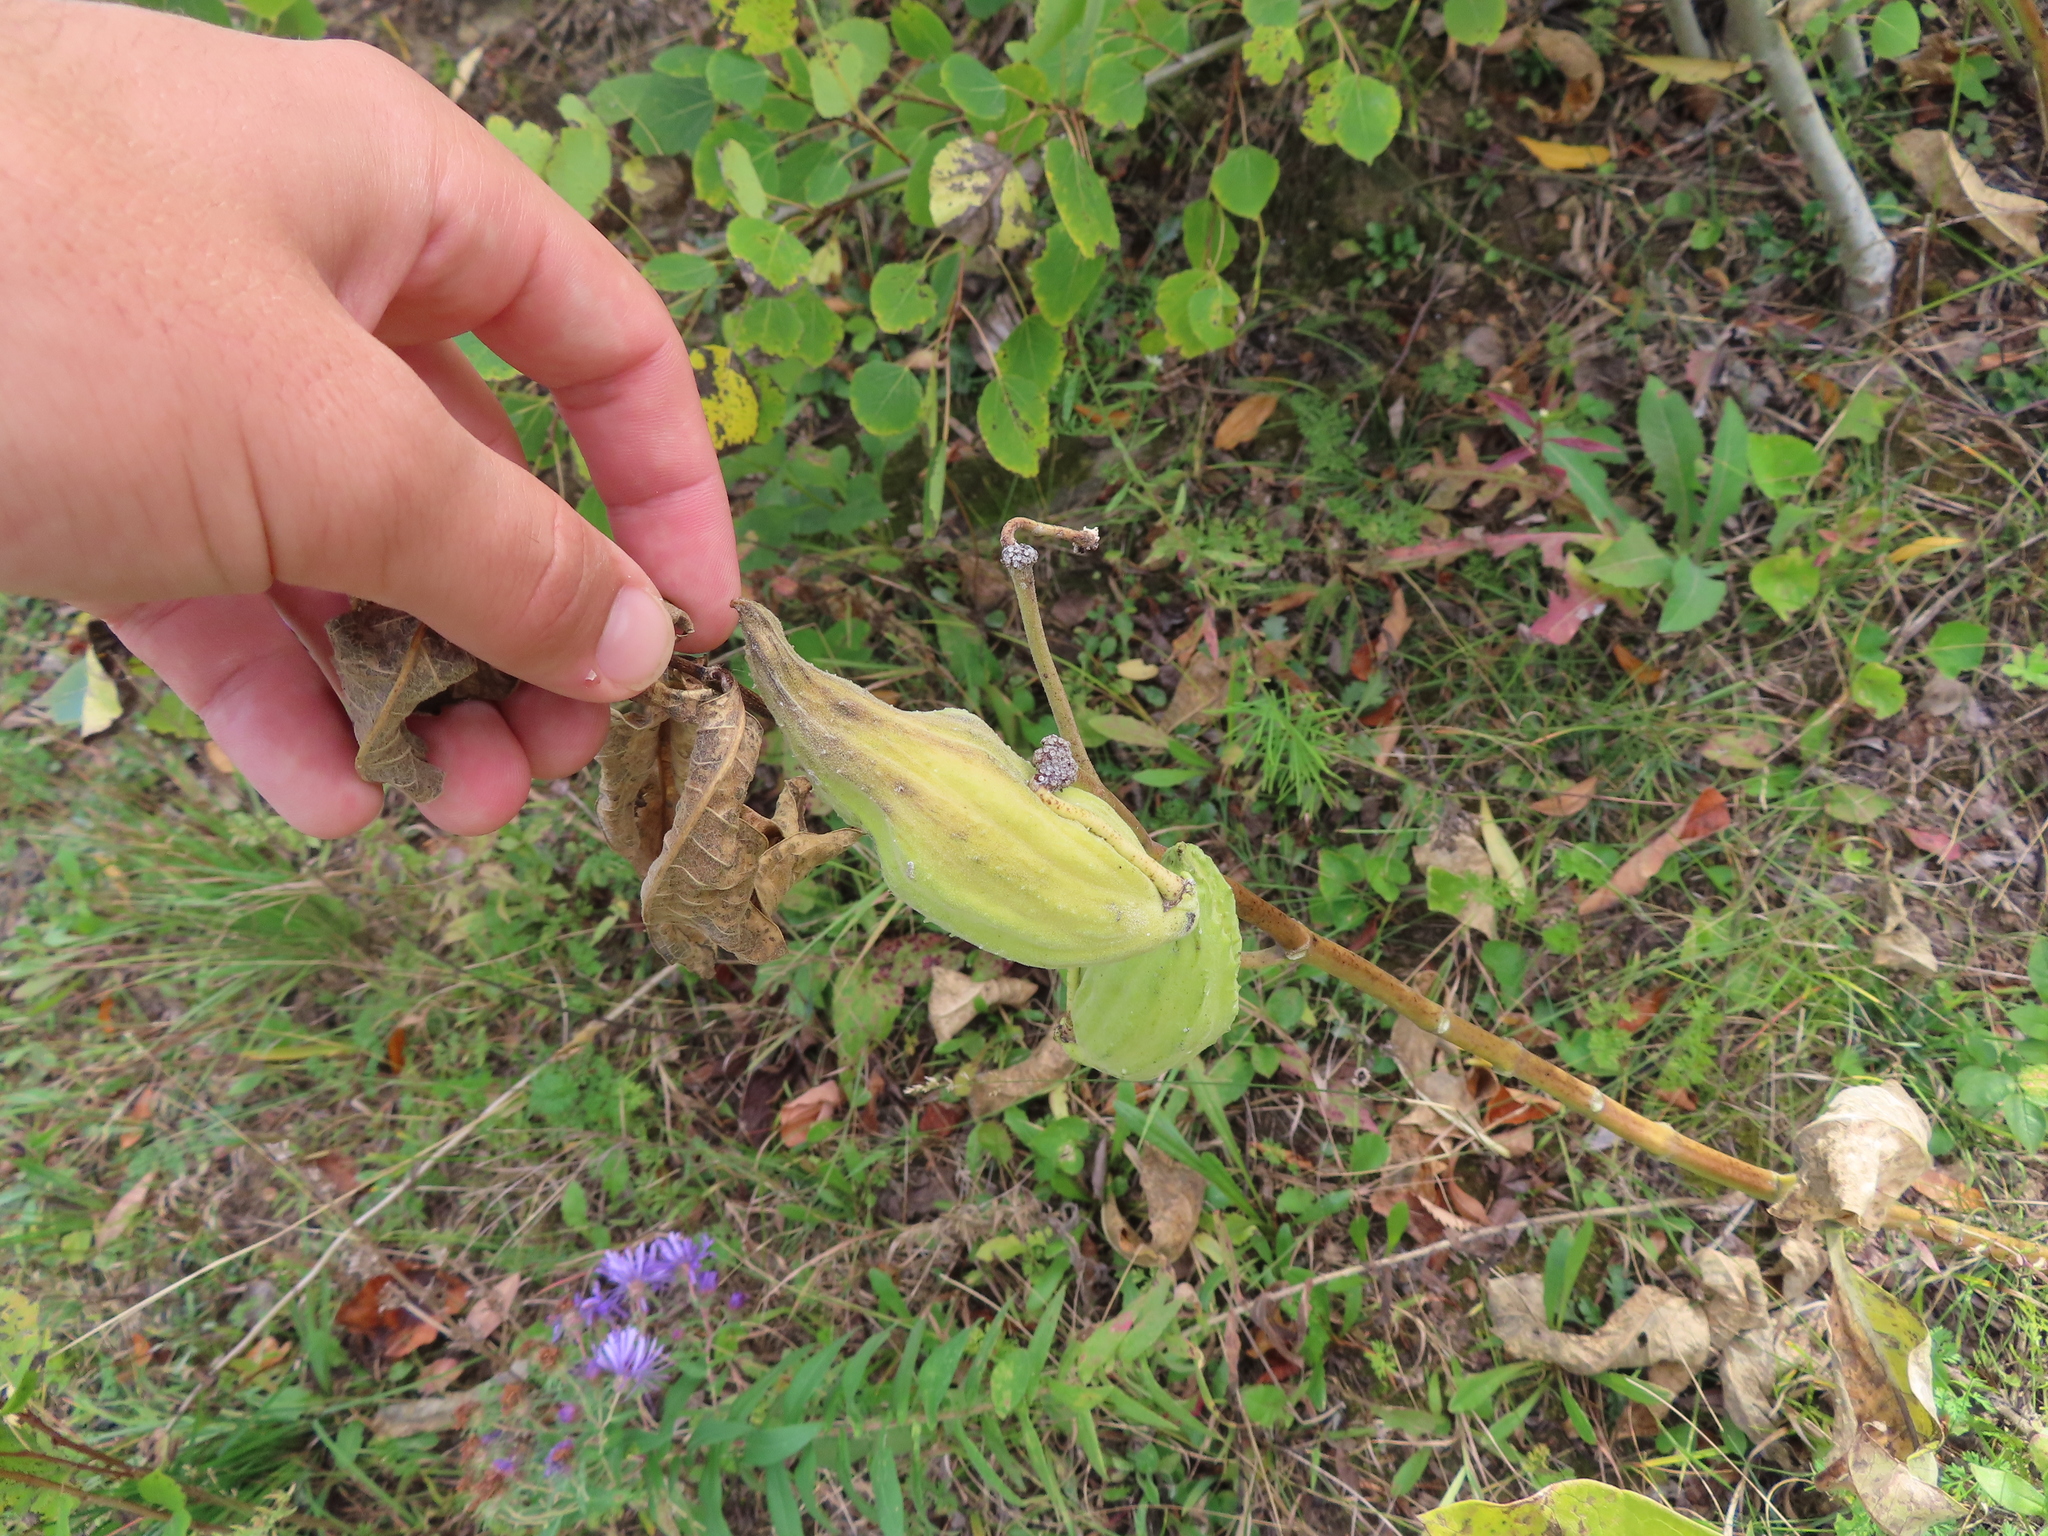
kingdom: Plantae
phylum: Tracheophyta
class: Magnoliopsida
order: Gentianales
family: Apocynaceae
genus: Asclepias
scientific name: Asclepias syriaca
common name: Common milkweed
